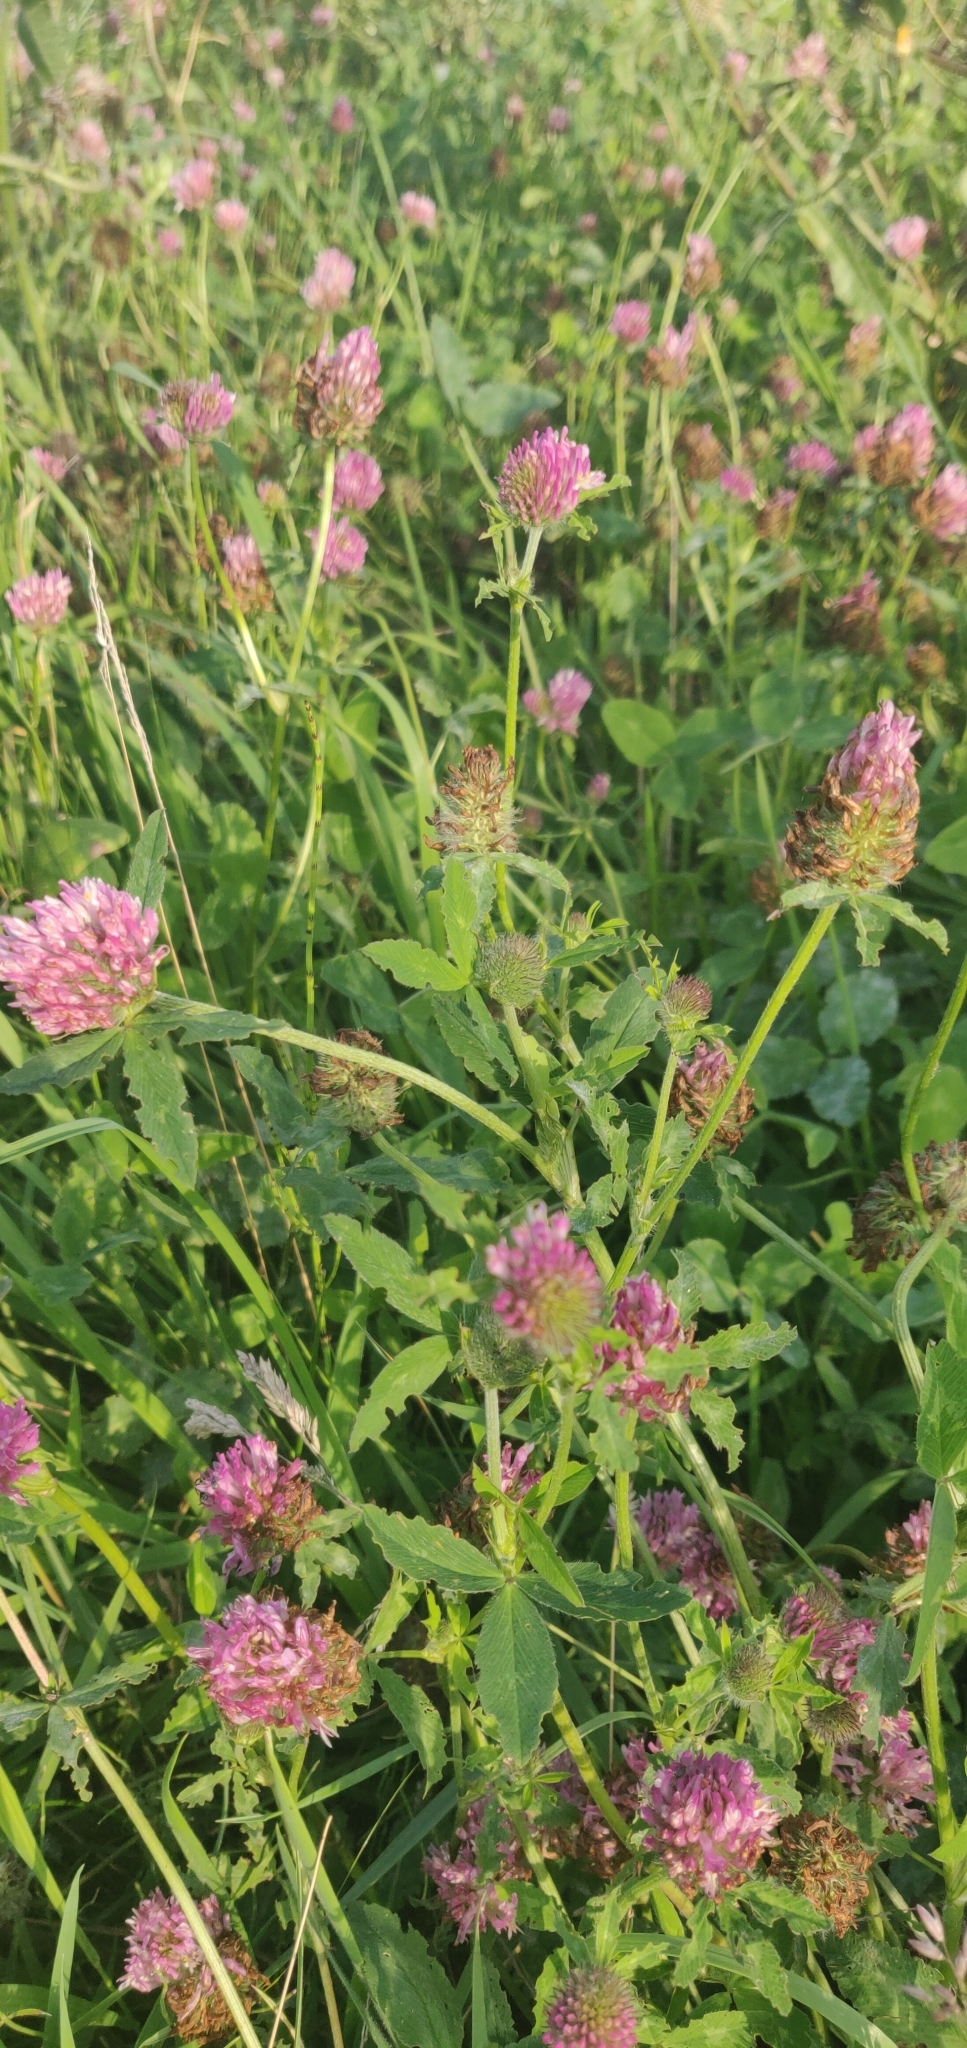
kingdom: Plantae
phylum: Tracheophyta
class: Magnoliopsida
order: Fabales
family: Fabaceae
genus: Trifolium
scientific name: Trifolium pratense
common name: Red clover
